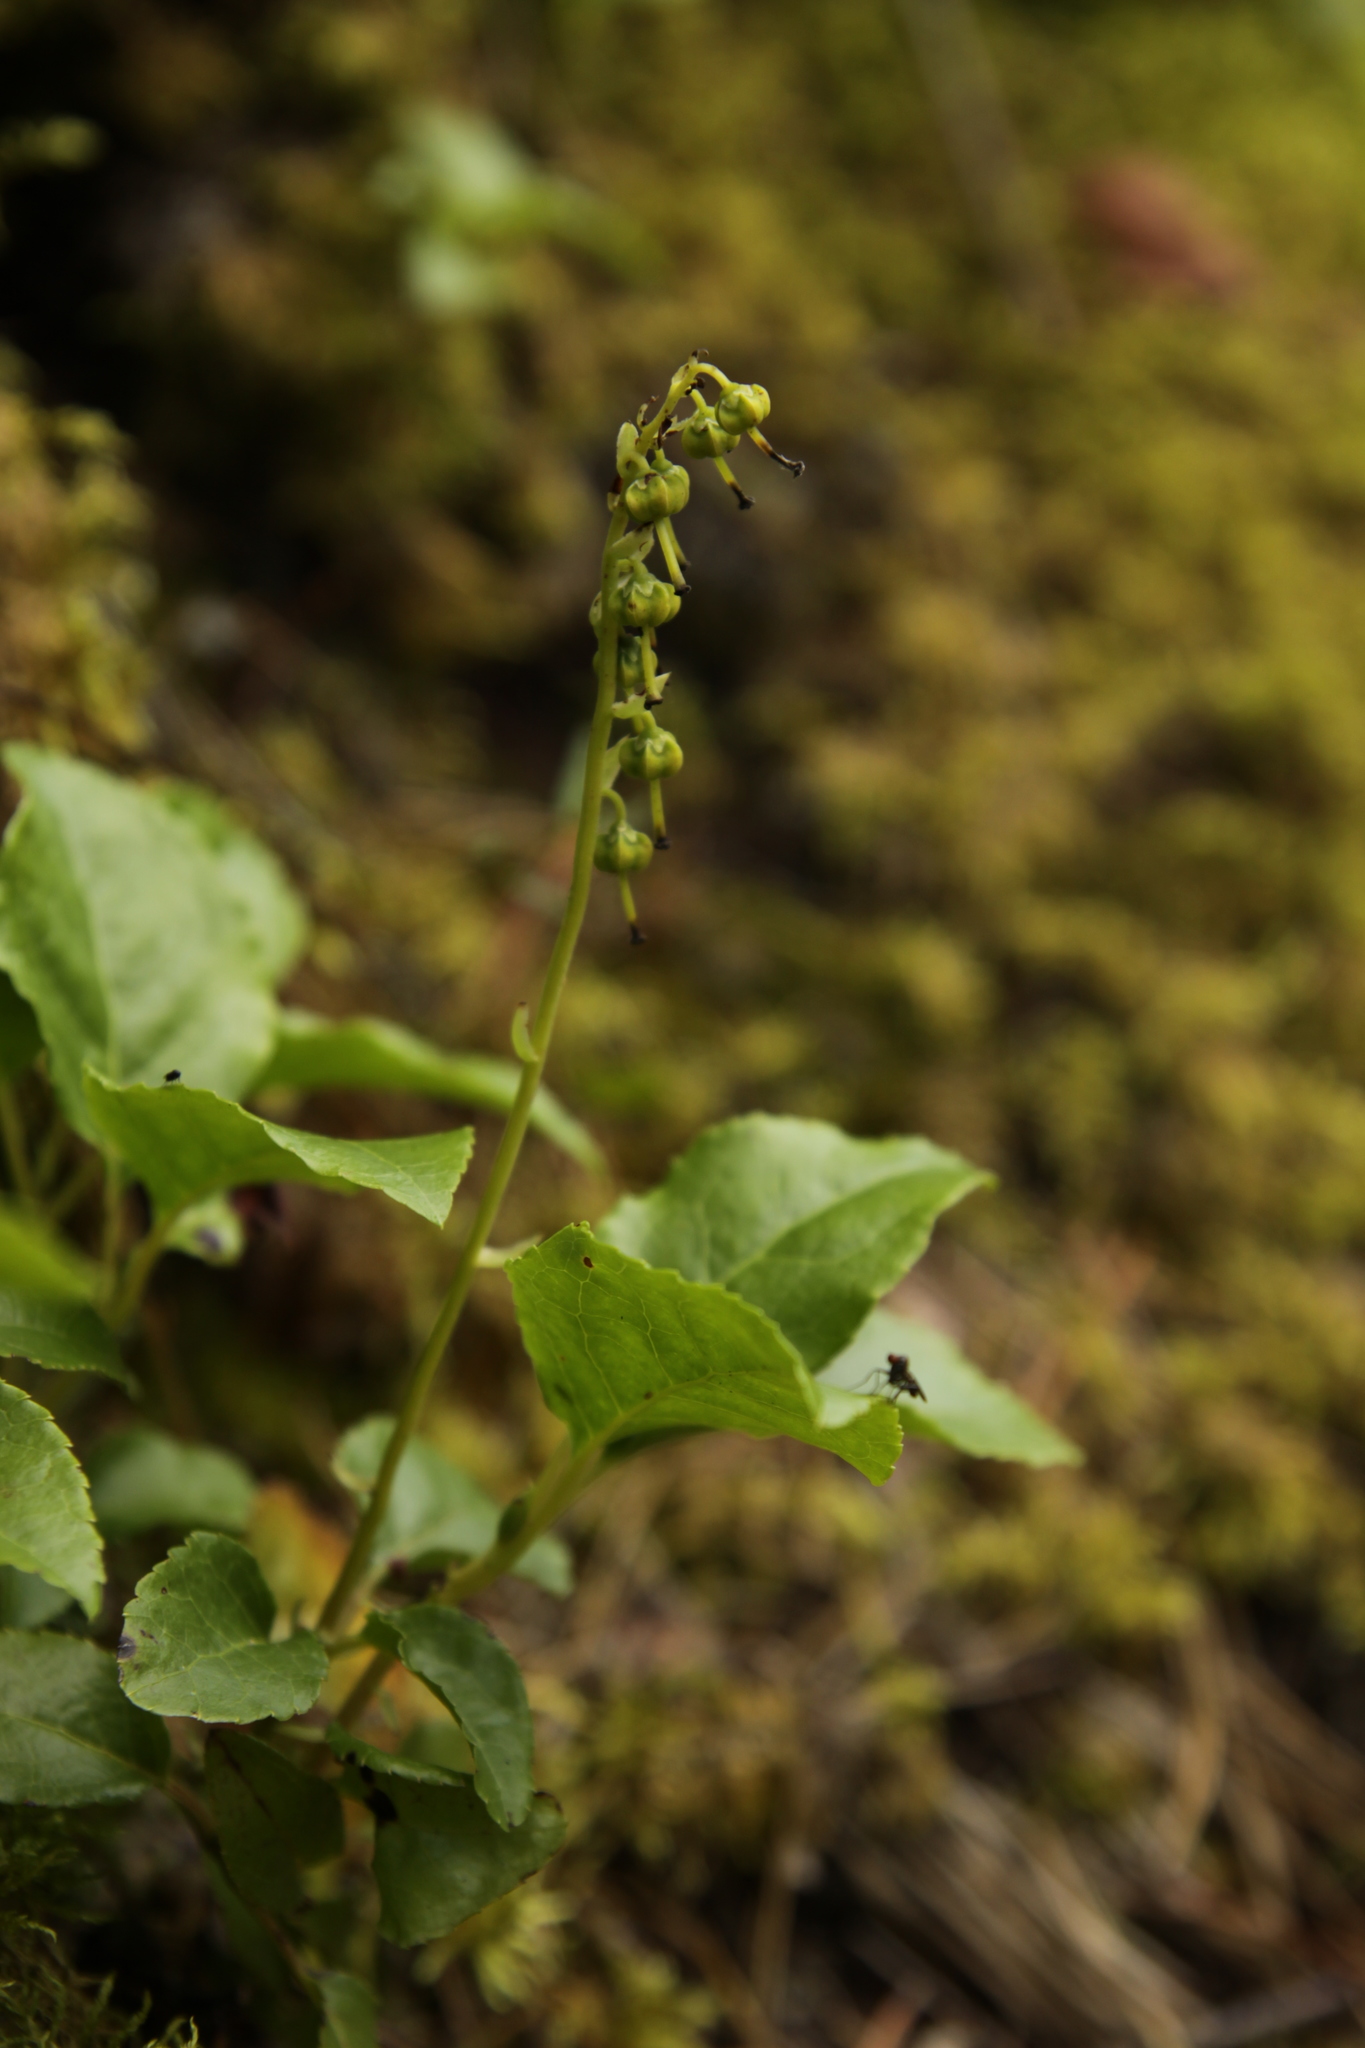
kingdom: Plantae
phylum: Tracheophyta
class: Magnoliopsida
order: Ericales
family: Ericaceae
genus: Orthilia
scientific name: Orthilia secunda
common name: One-sided orthilia
